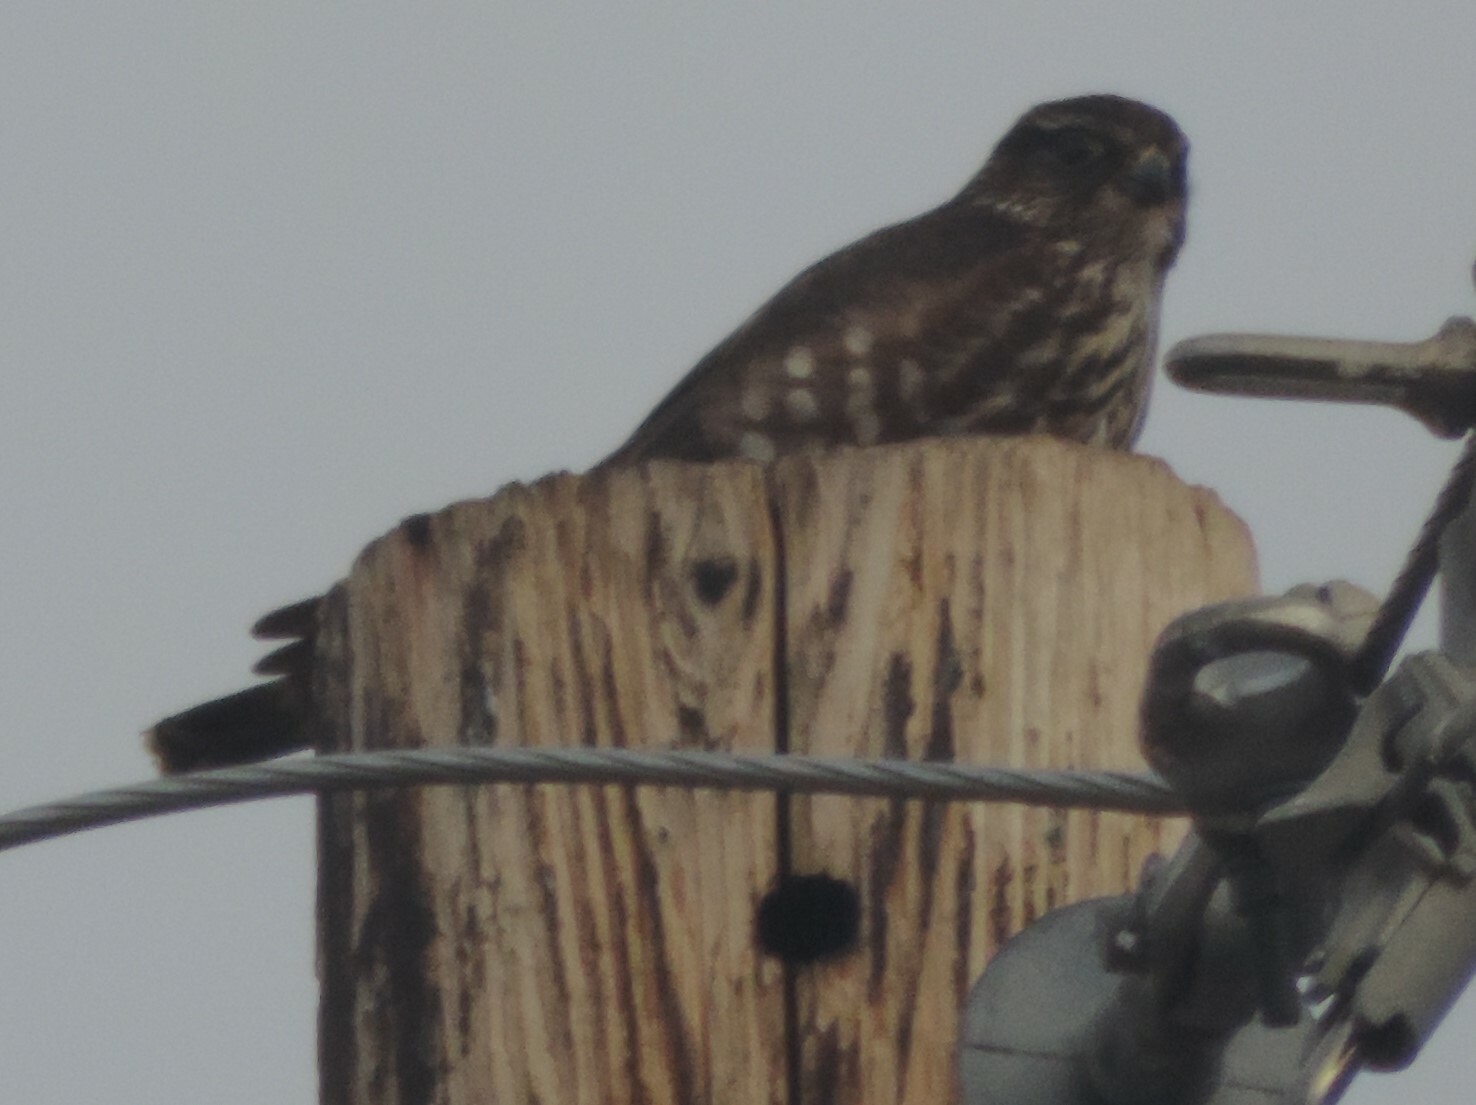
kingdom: Animalia
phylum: Chordata
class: Aves
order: Falconiformes
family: Falconidae
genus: Falco
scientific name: Falco columbarius
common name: Merlin
